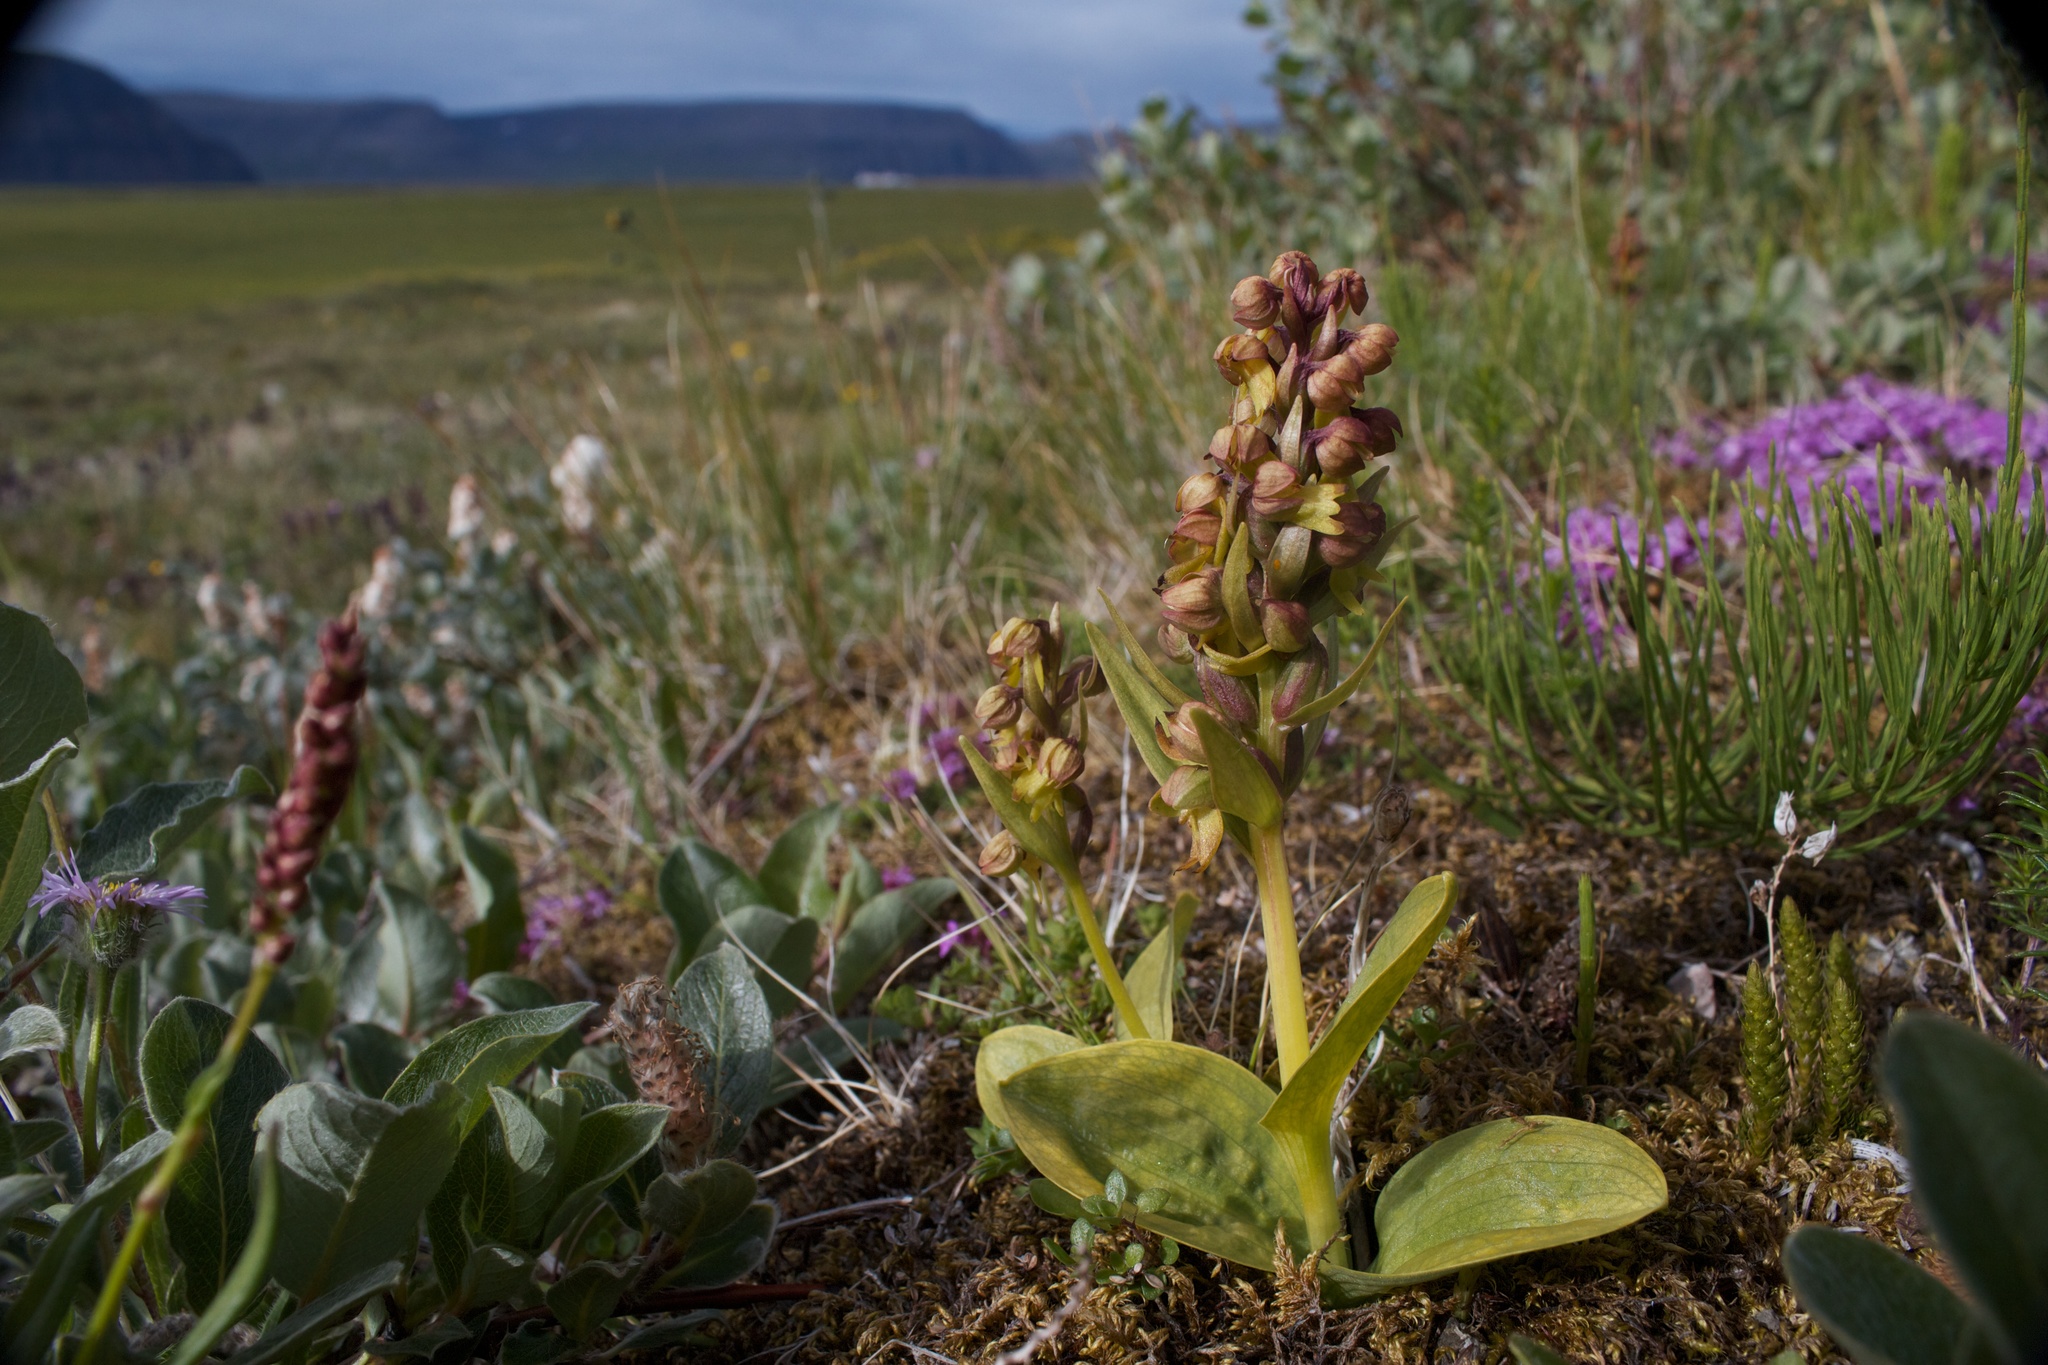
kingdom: Plantae
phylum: Tracheophyta
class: Liliopsida
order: Asparagales
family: Orchidaceae
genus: Dactylorhiza
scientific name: Dactylorhiza viridis
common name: Longbract frog orchid
